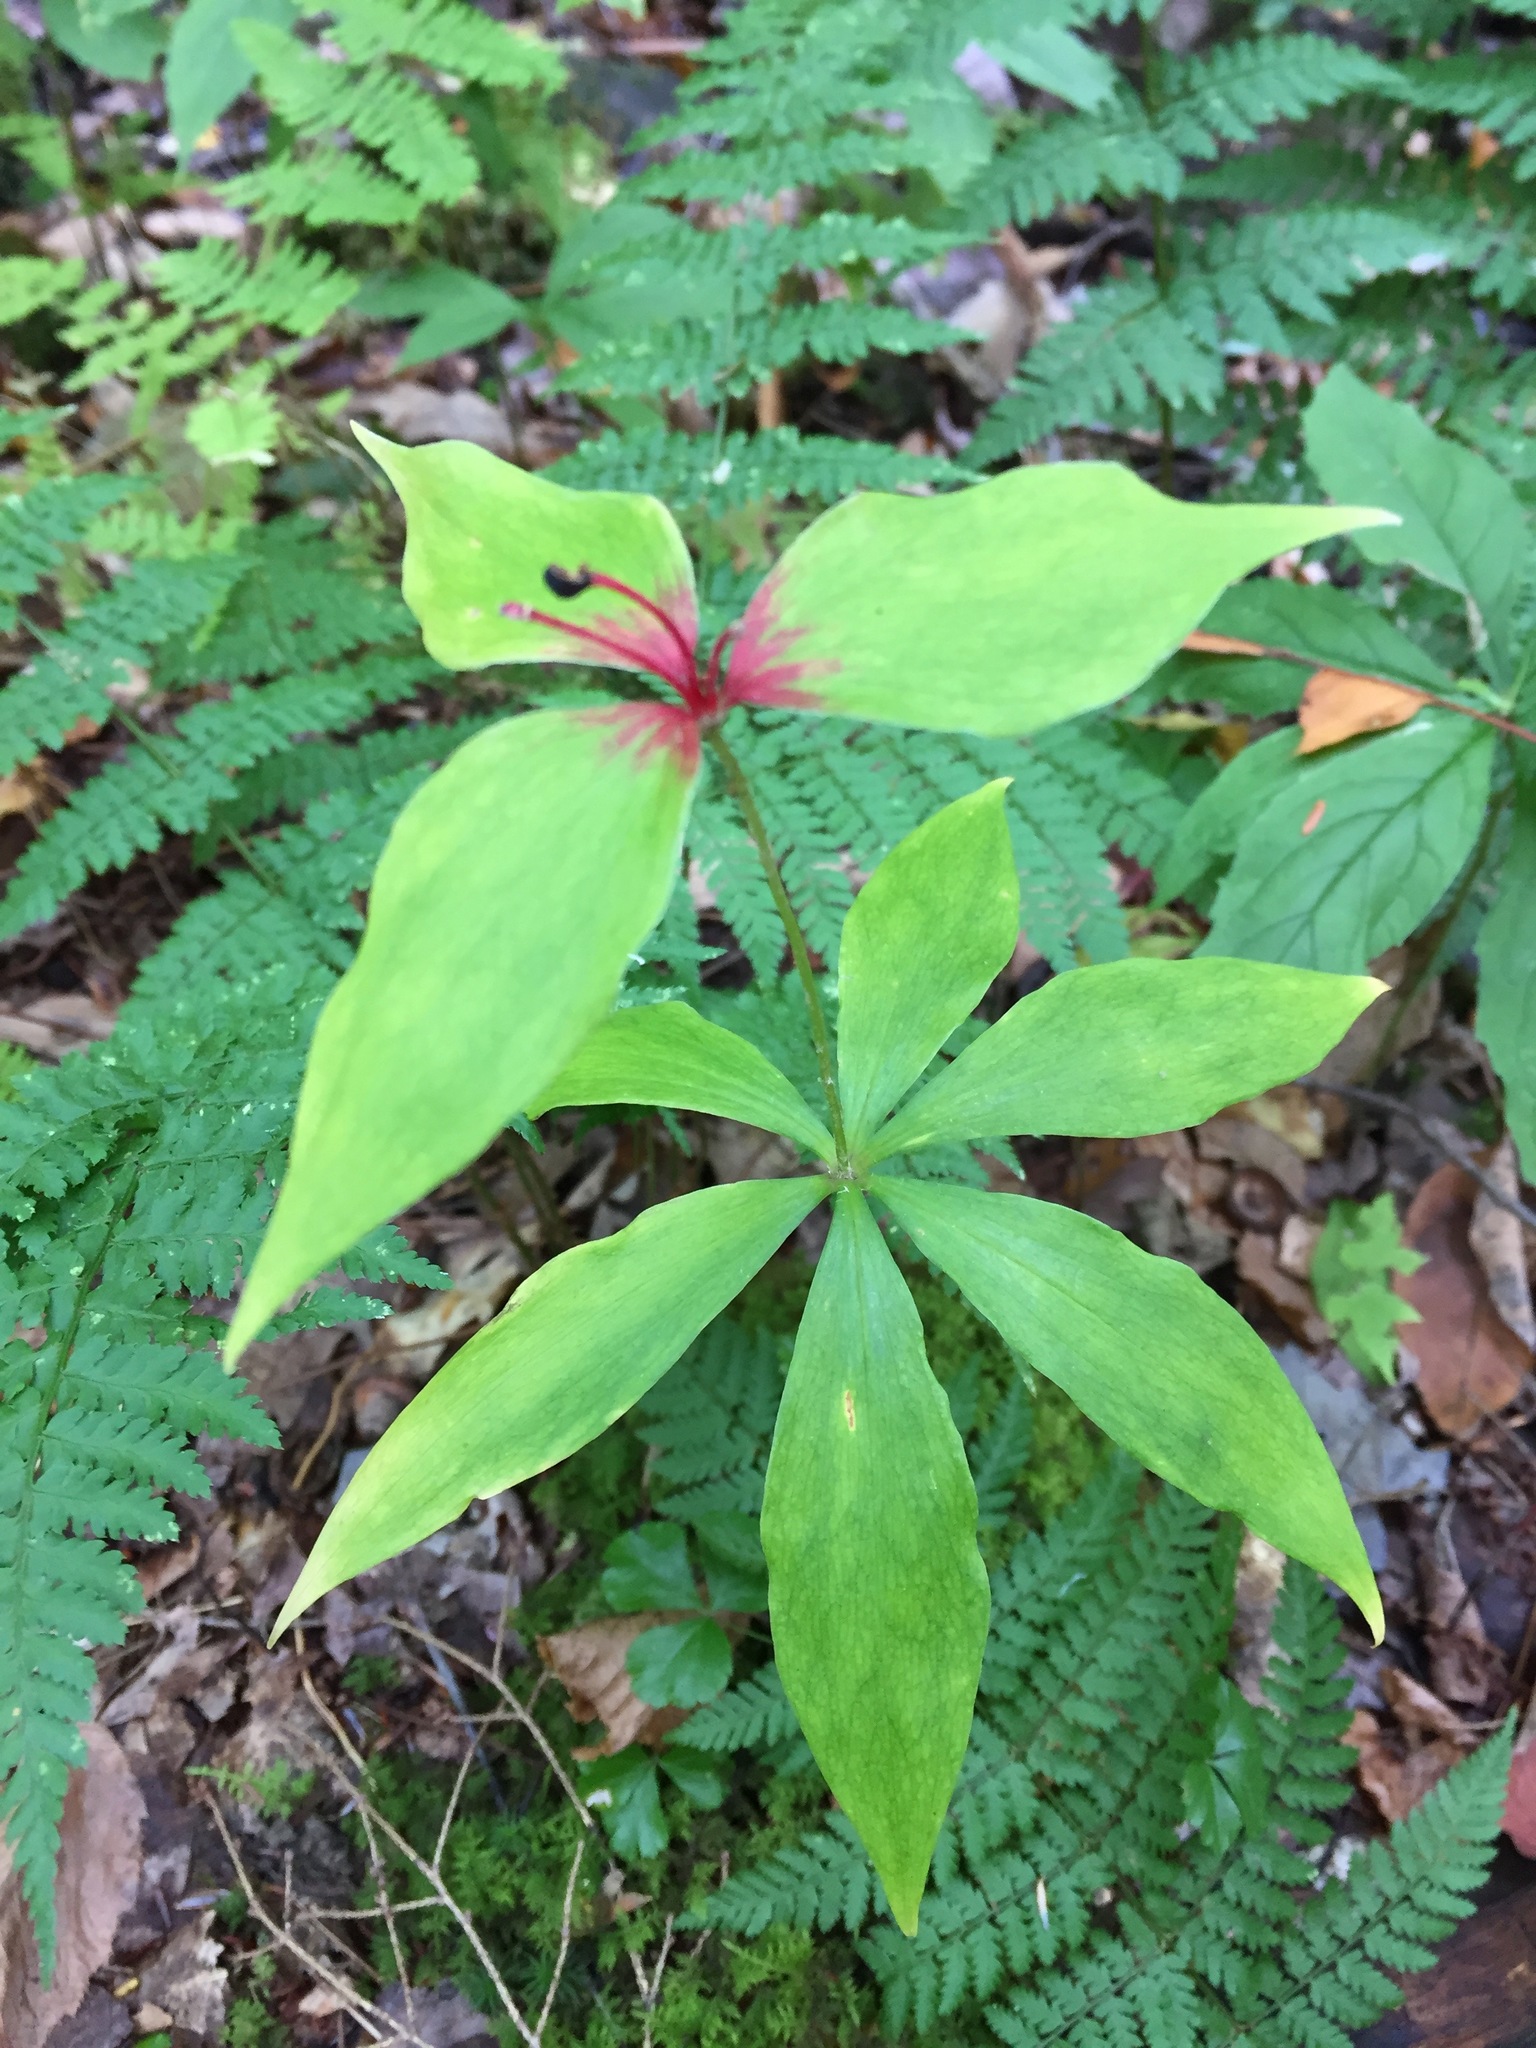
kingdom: Plantae
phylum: Tracheophyta
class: Liliopsida
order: Liliales
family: Liliaceae
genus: Medeola
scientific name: Medeola virginiana
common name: Indian cucumber-root
